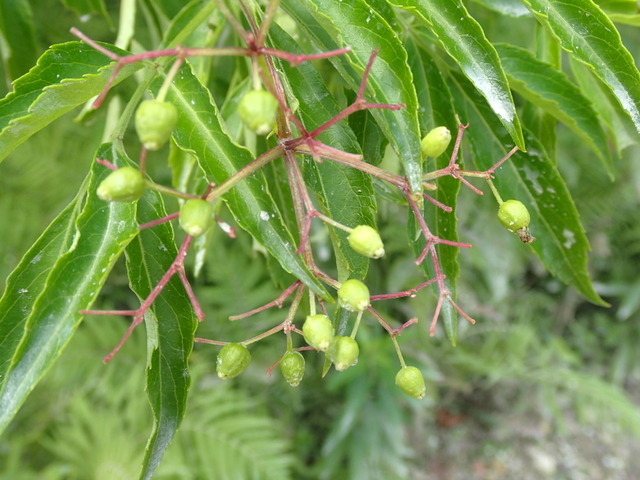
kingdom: Plantae
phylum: Tracheophyta
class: Magnoliopsida
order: Dipsacales
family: Viburnaceae
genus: Sambucus
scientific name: Sambucus canadensis
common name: American elder
